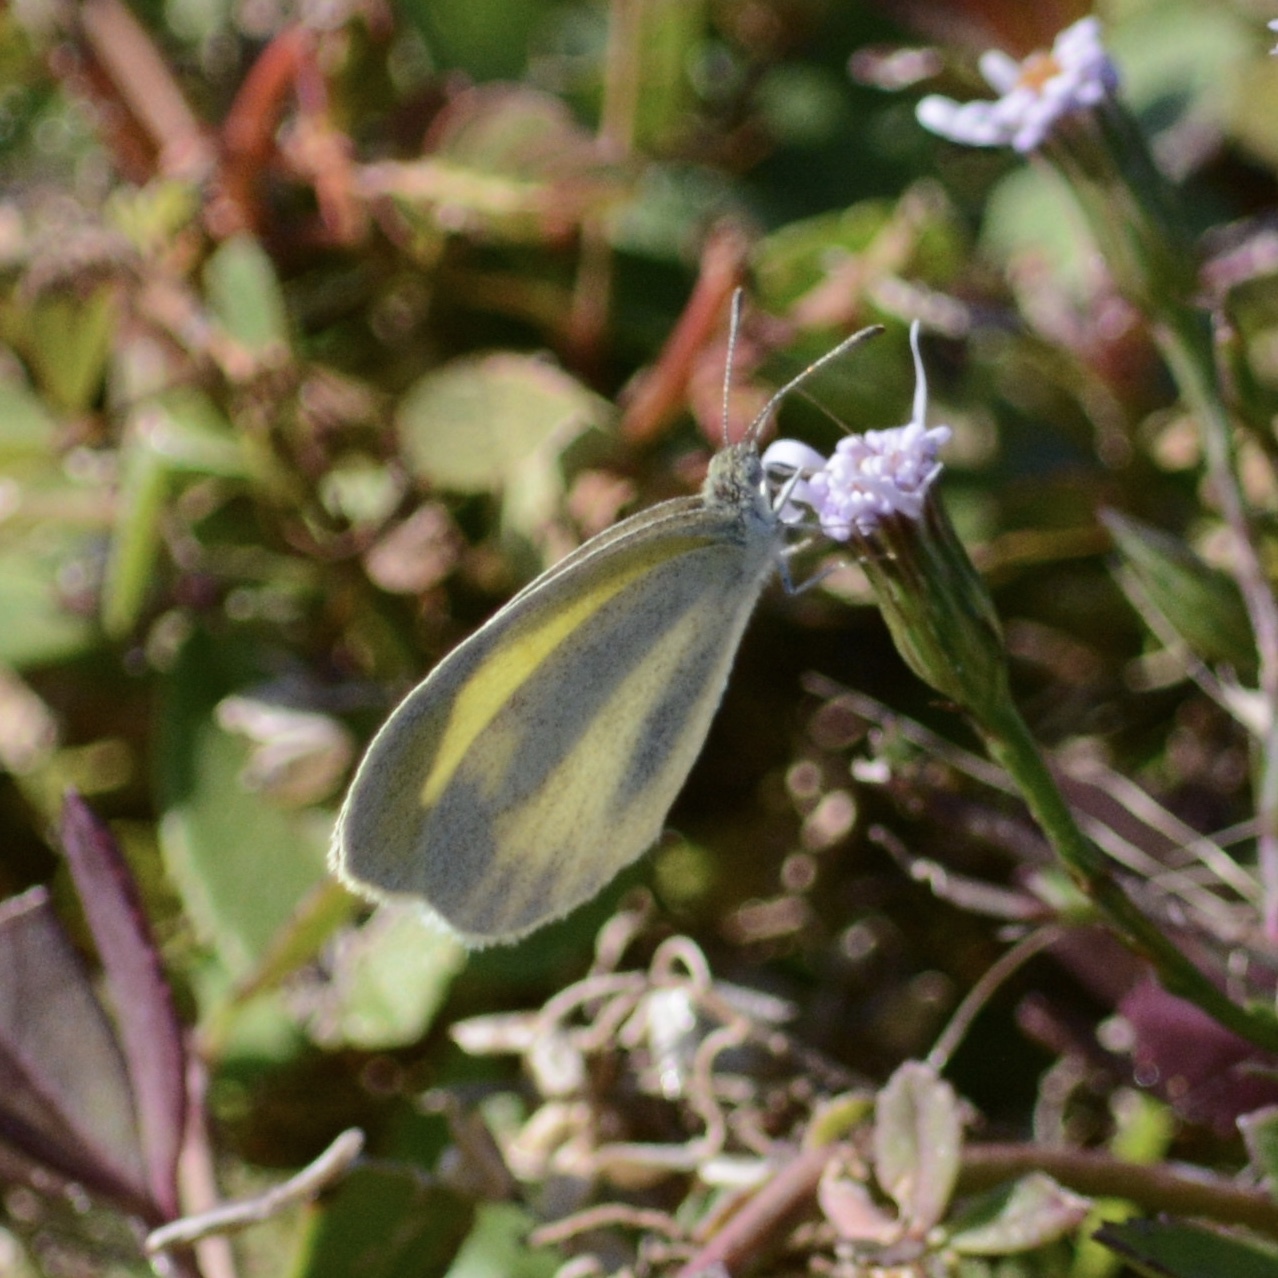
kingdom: Animalia
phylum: Arthropoda
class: Insecta
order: Lepidoptera
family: Pieridae
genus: Eurema
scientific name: Eurema daira
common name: Barred sulphur
